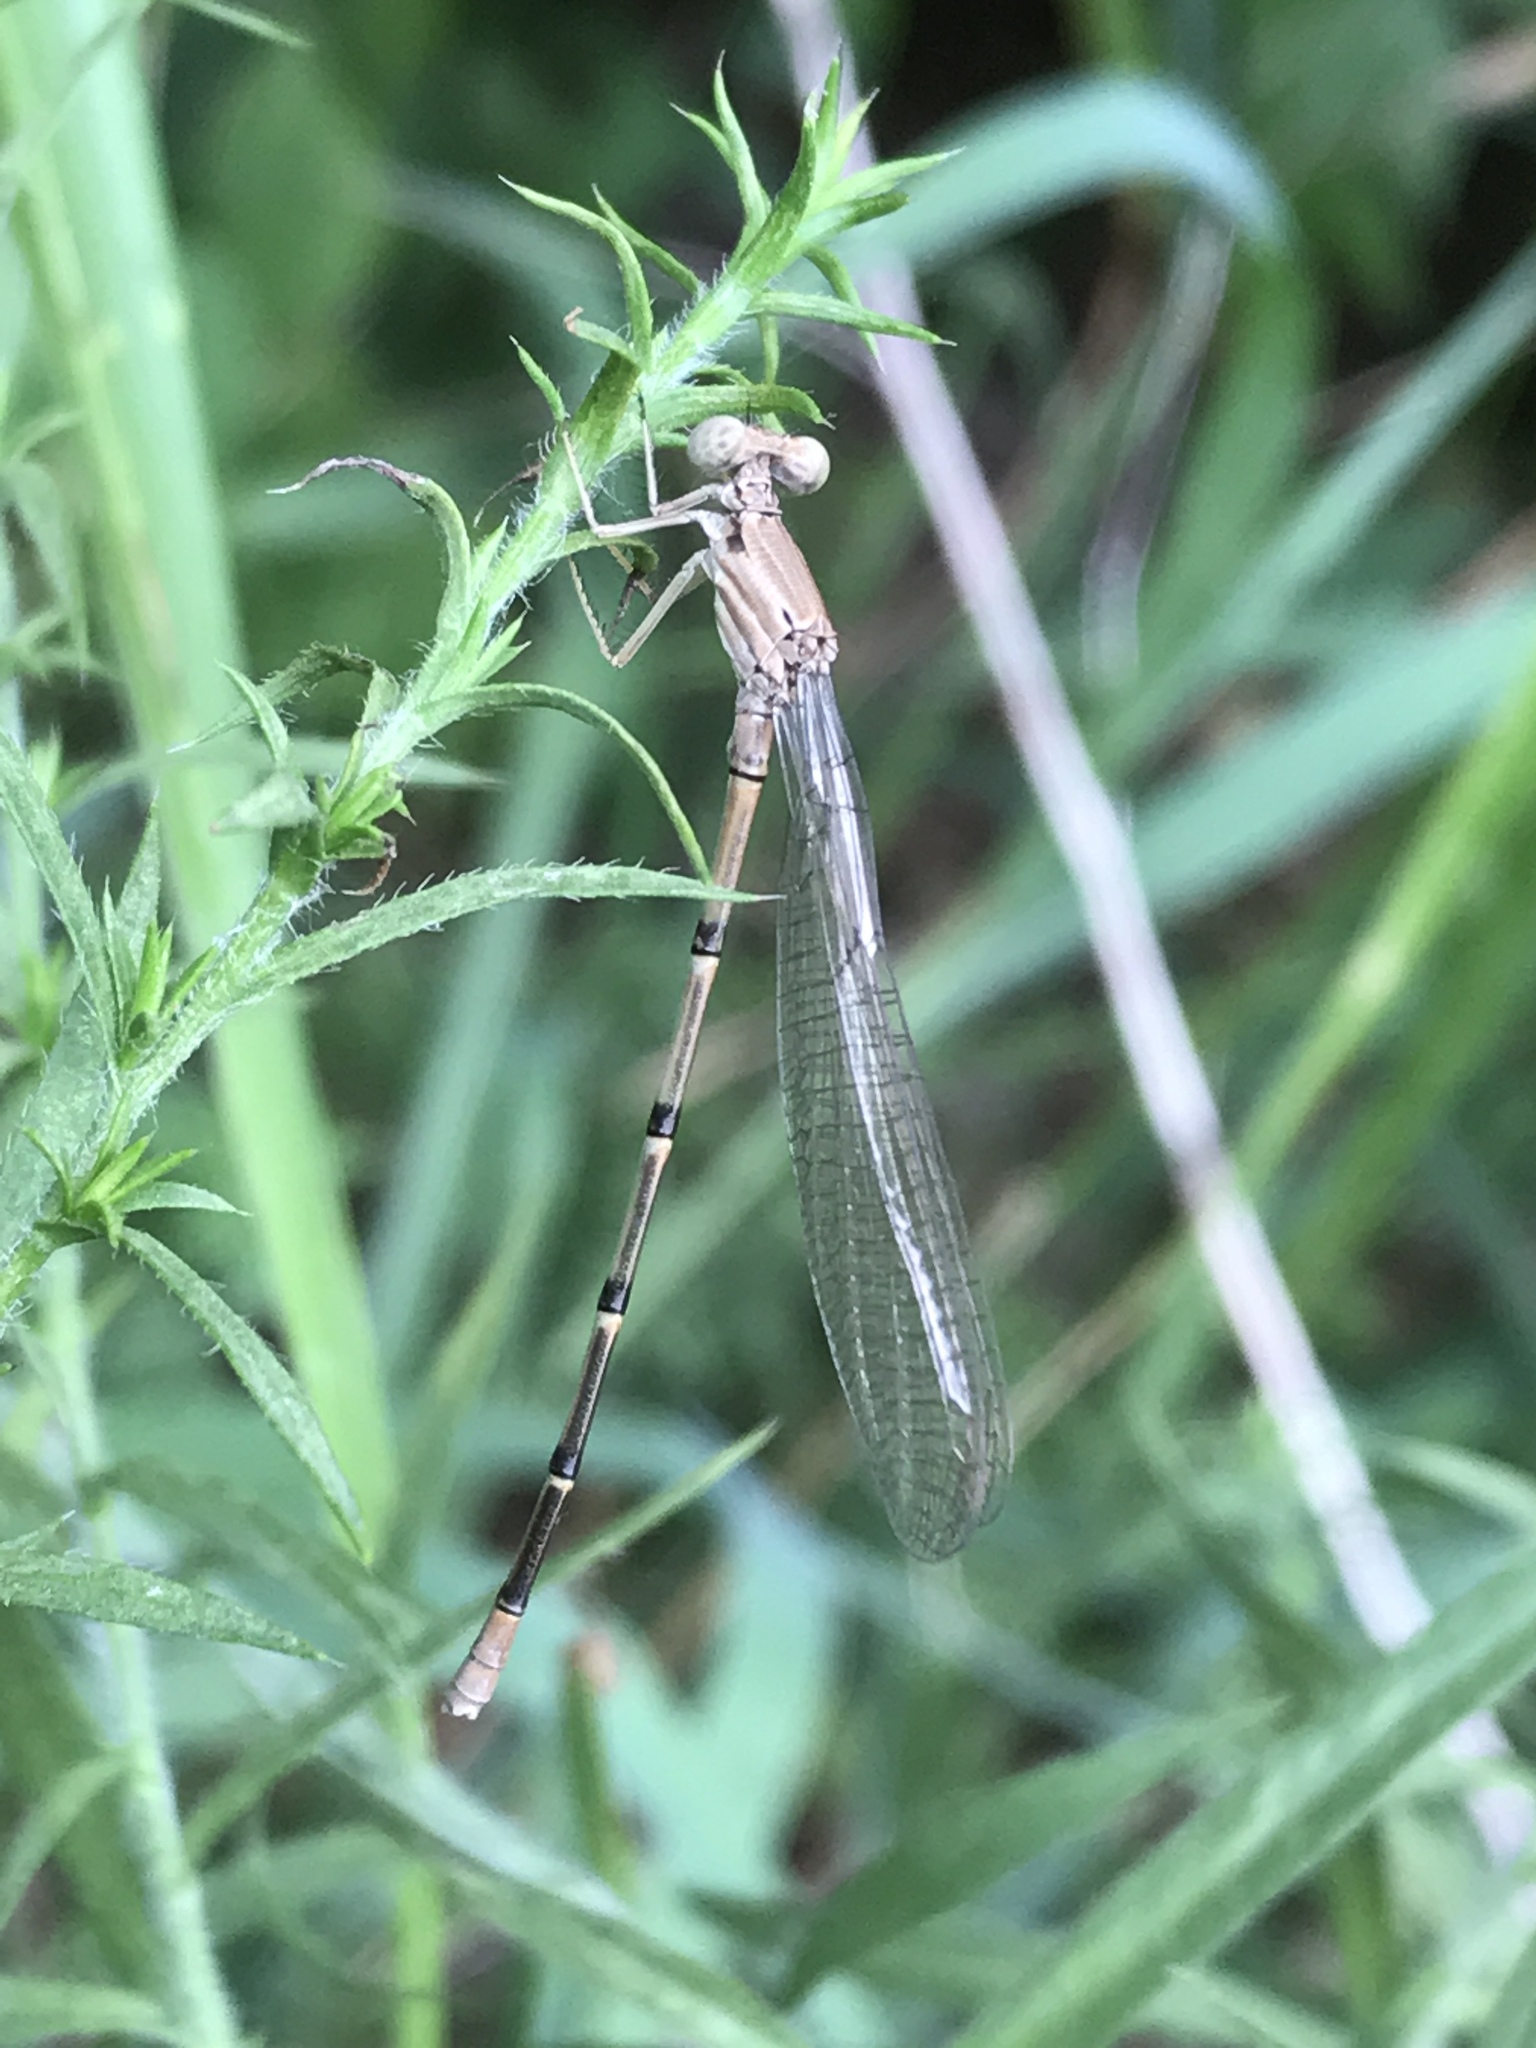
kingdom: Animalia
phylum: Arthropoda
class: Insecta
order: Odonata
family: Coenagrionidae
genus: Argia
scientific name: Argia apicalis
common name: Blue-fronted dancer
